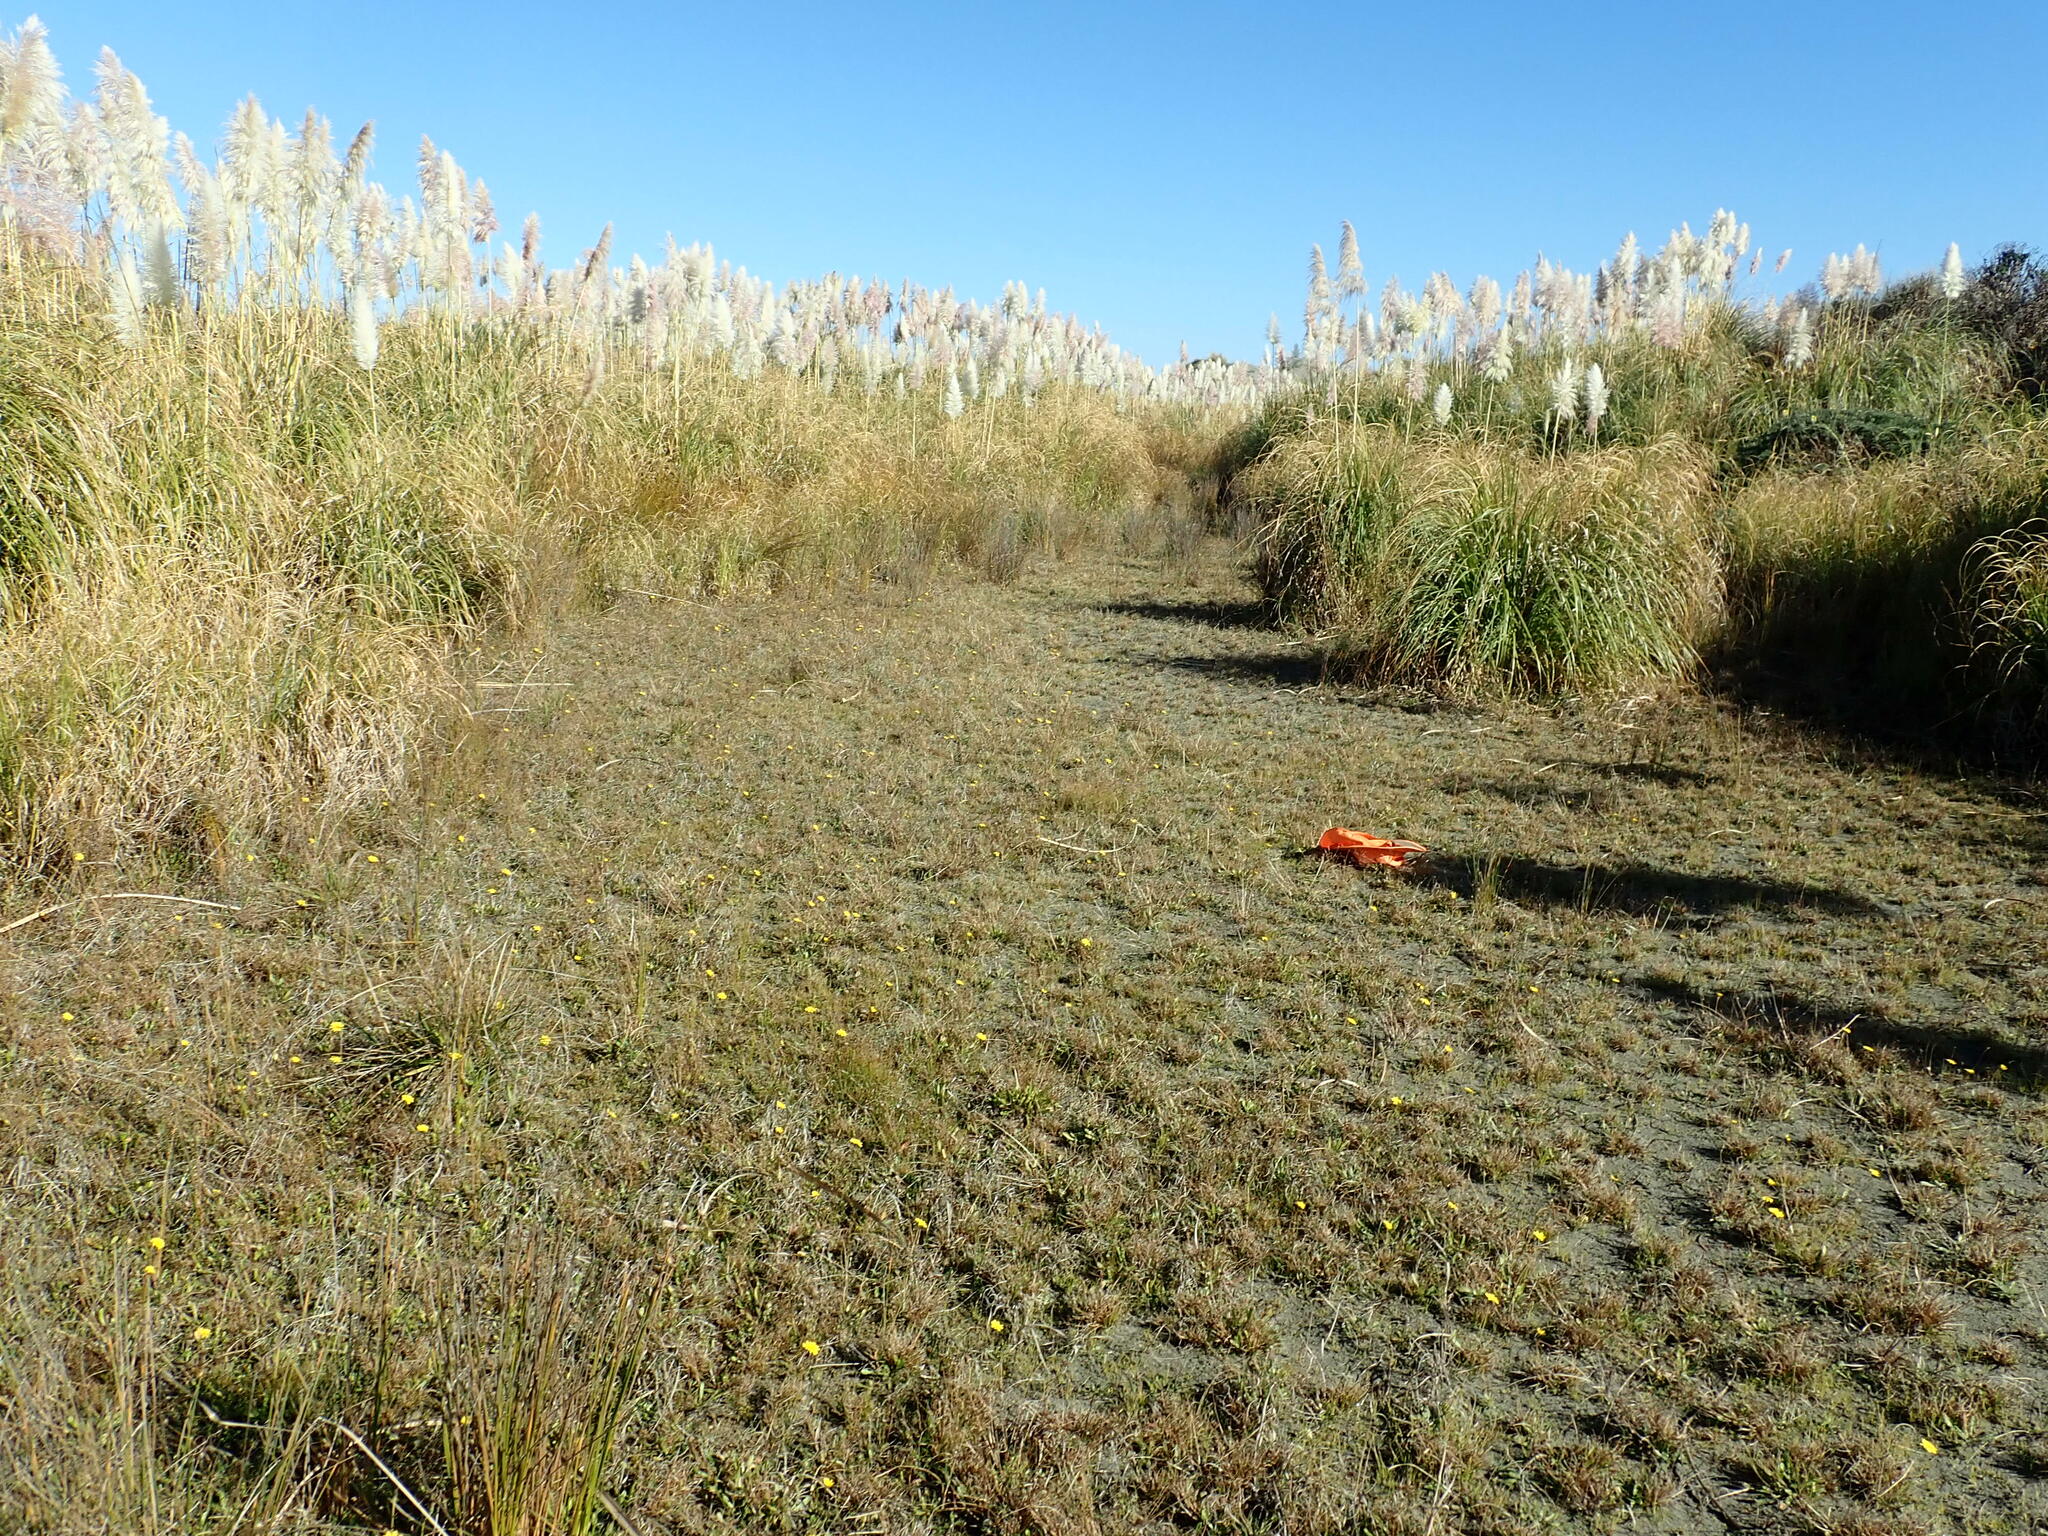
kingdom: Plantae
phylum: Tracheophyta
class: Liliopsida
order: Alismatales
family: Juncaginaceae
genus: Triglochin
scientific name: Triglochin striata
